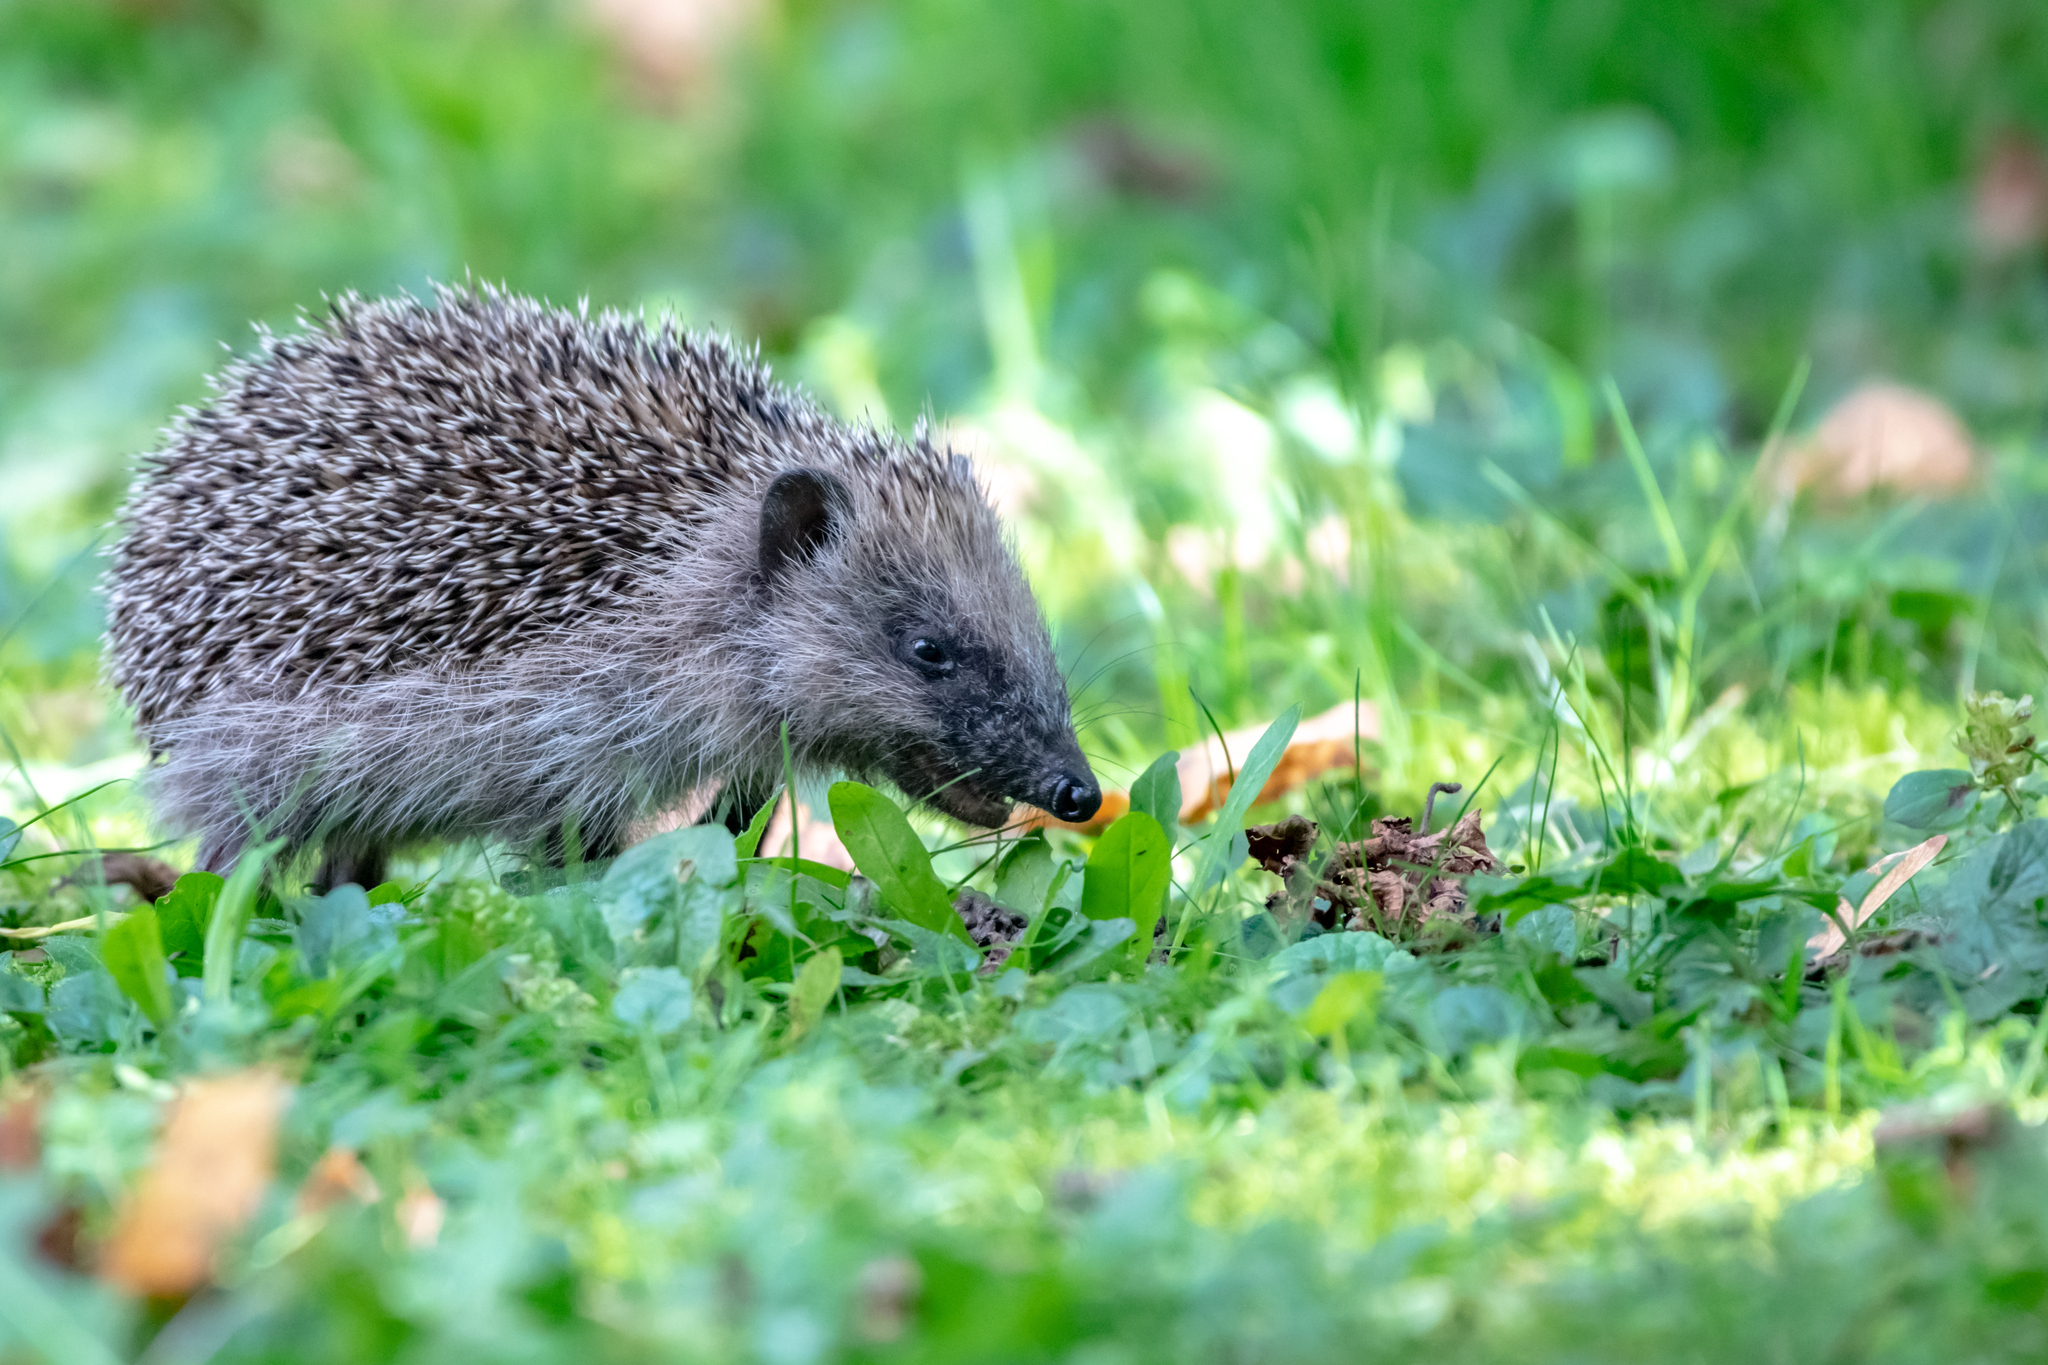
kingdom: Animalia
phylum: Chordata
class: Mammalia
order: Erinaceomorpha
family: Erinaceidae
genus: Erinaceus
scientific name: Erinaceus europaeus
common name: West european hedgehog
